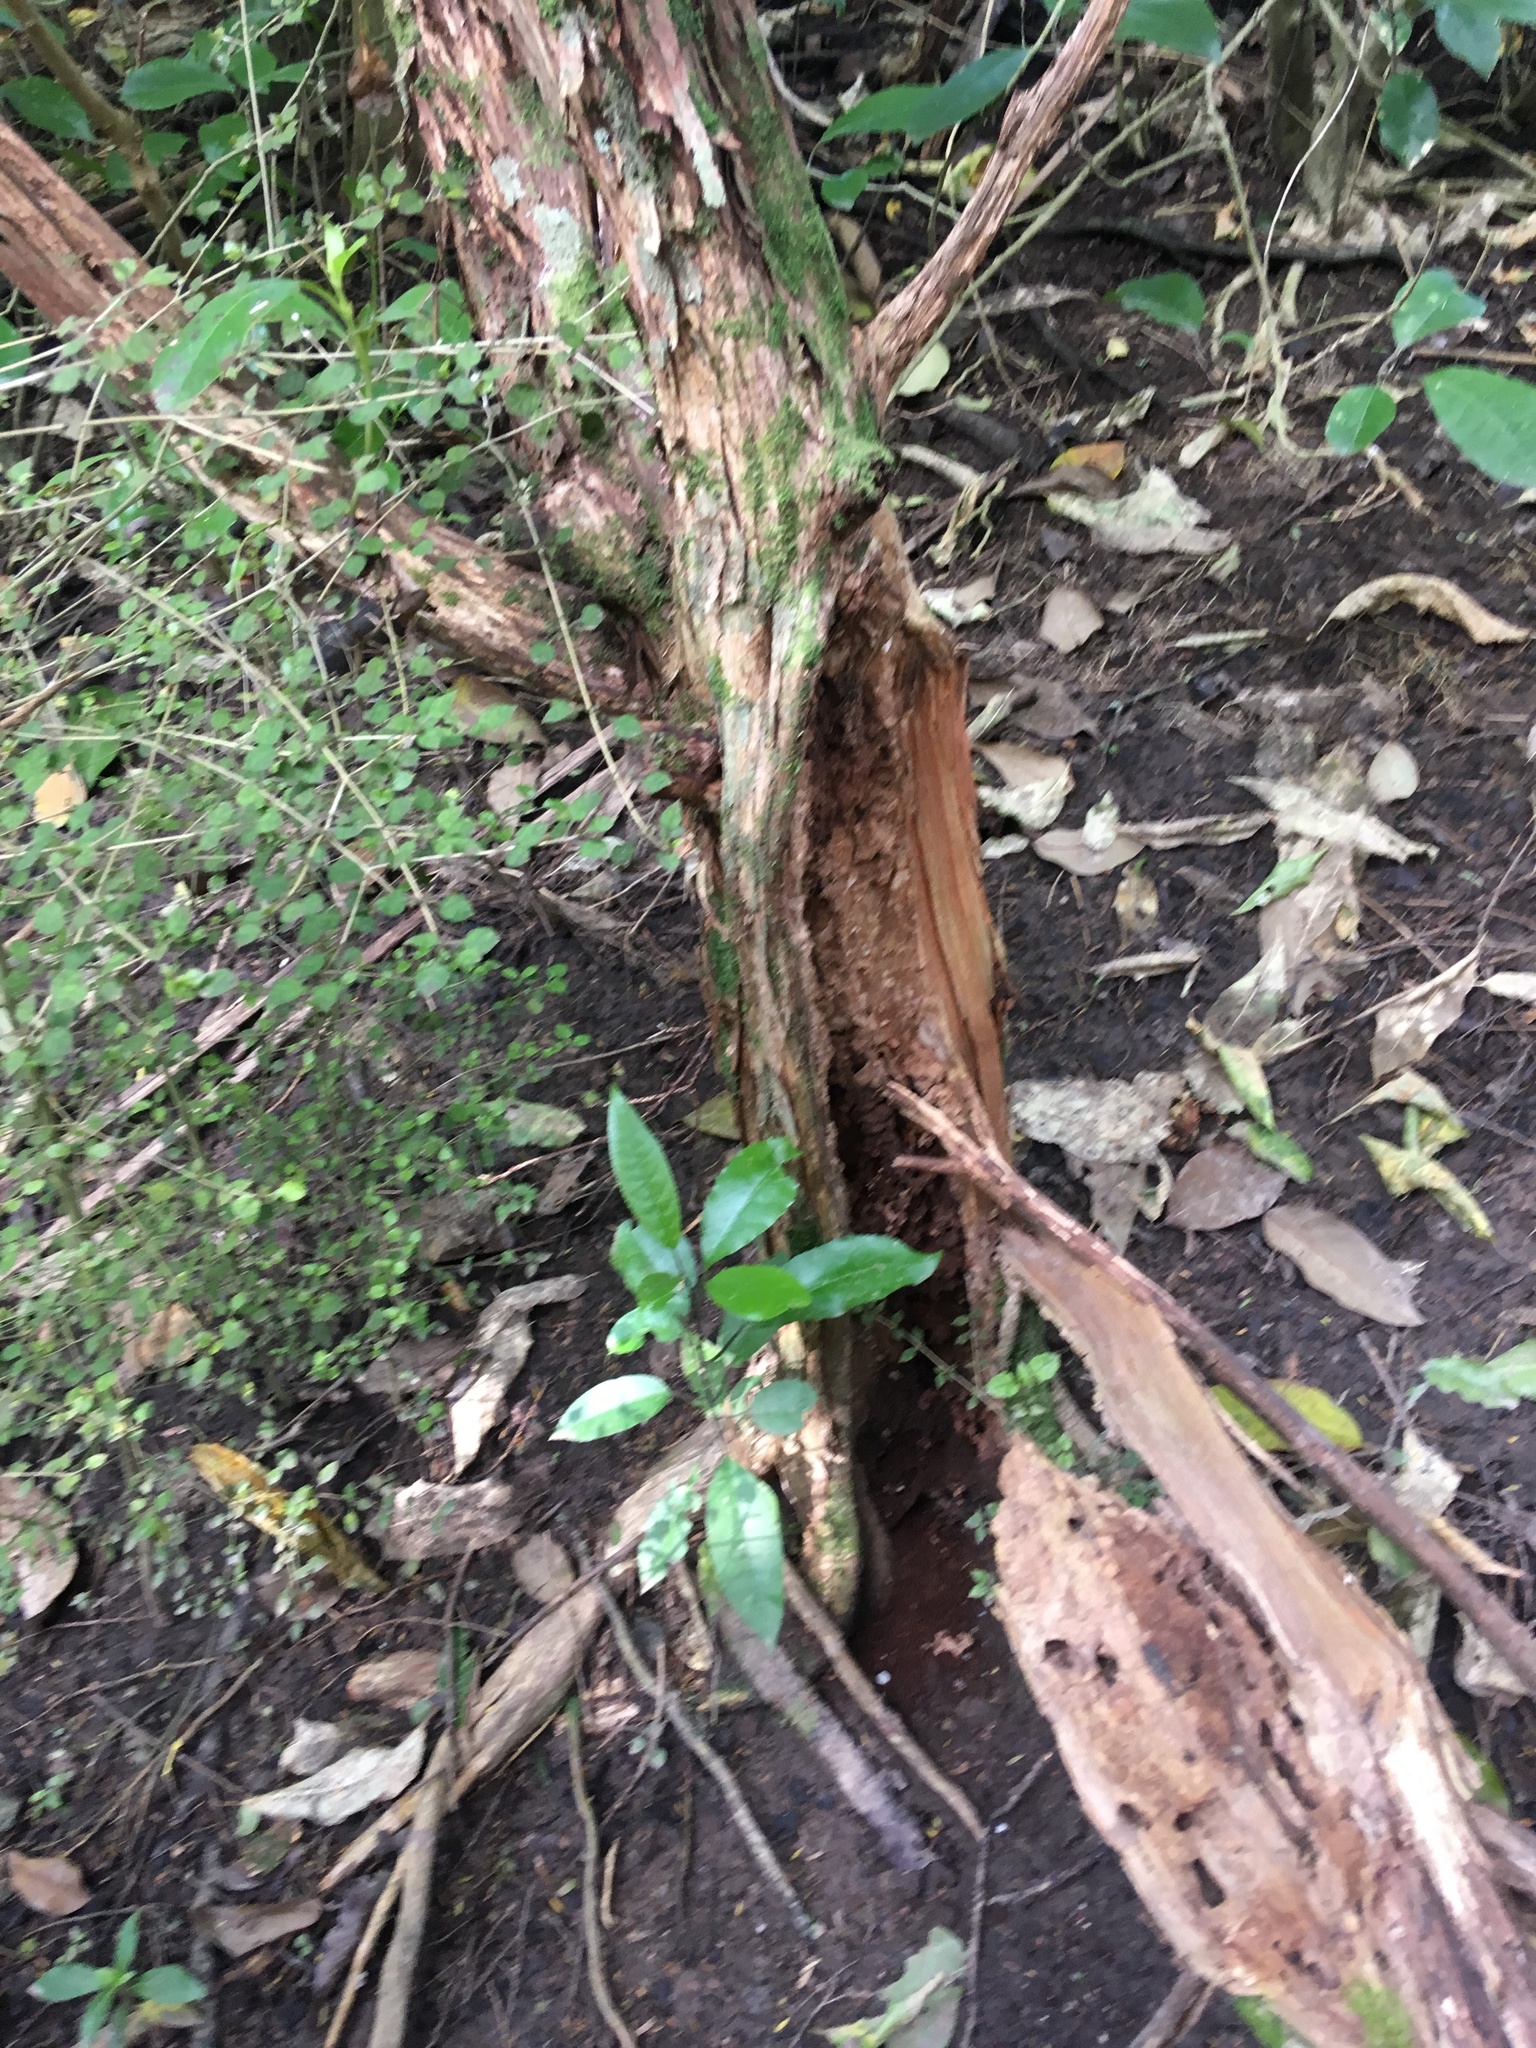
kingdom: Plantae
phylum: Tracheophyta
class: Magnoliopsida
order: Malpighiales
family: Violaceae
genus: Melicytus
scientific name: Melicytus ramiflorus
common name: Mahoe
